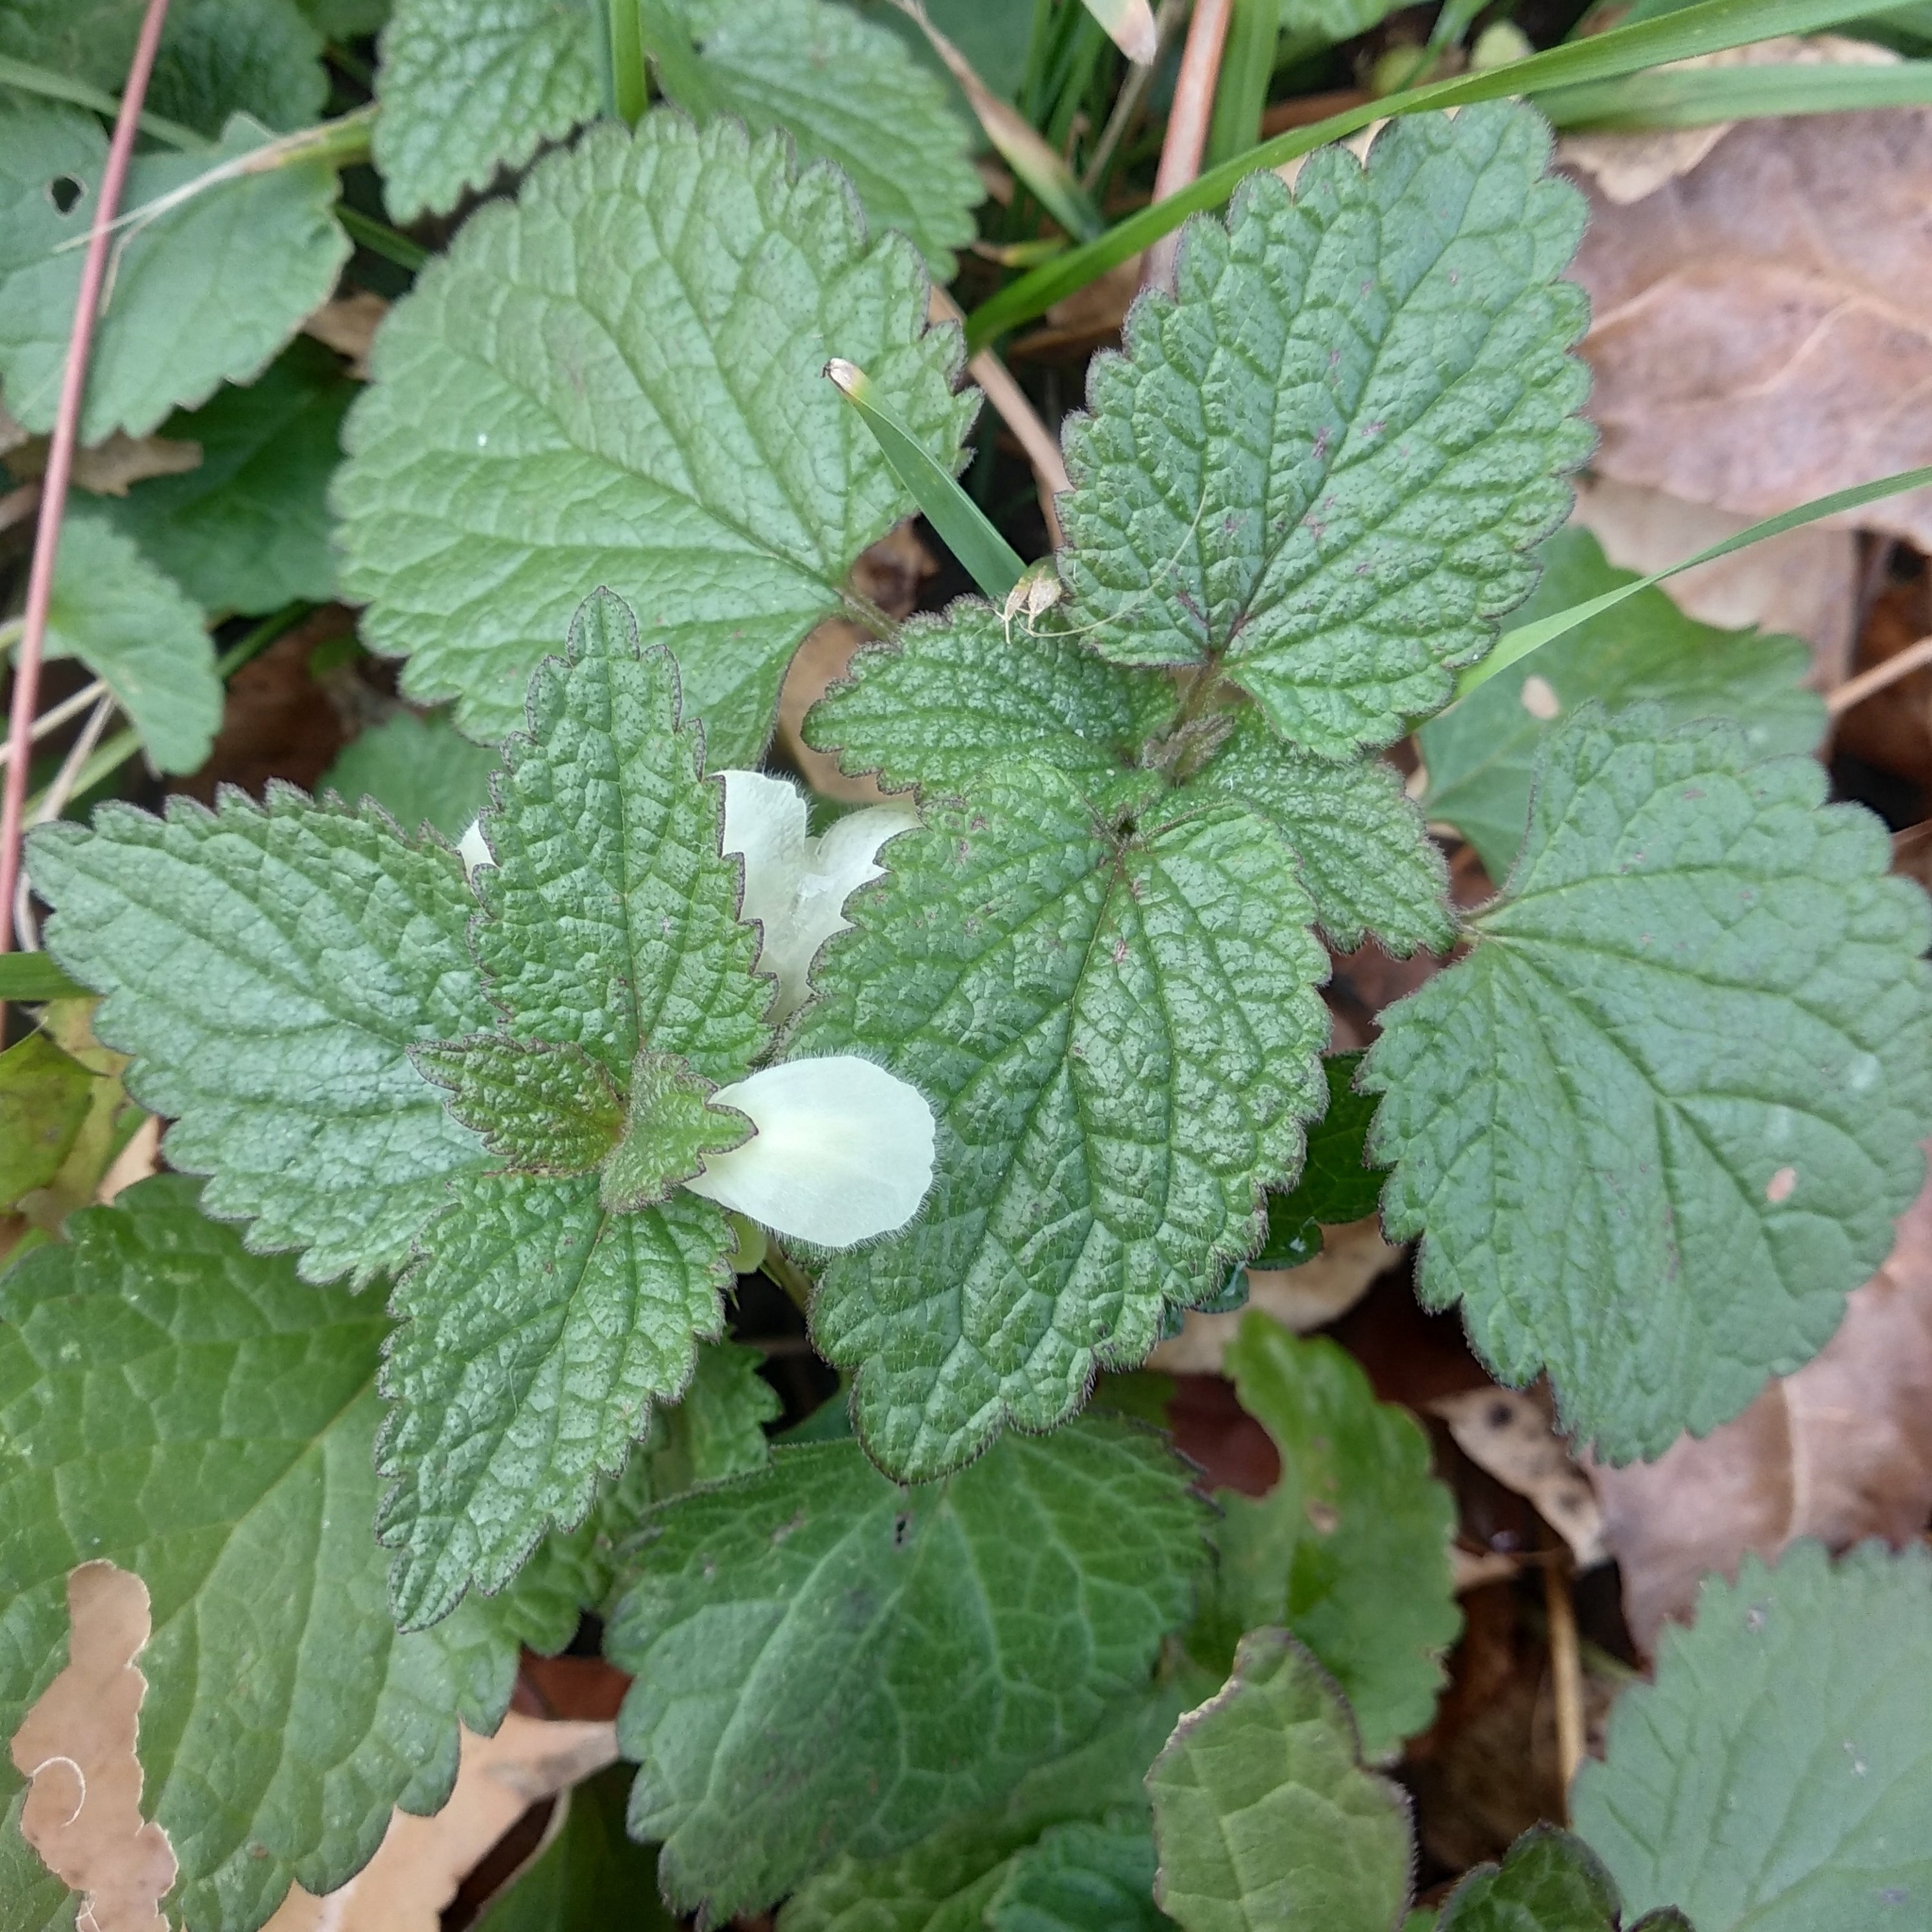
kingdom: Plantae
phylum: Tracheophyta
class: Magnoliopsida
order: Lamiales
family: Lamiaceae
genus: Lamium
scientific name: Lamium album
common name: White dead-nettle
